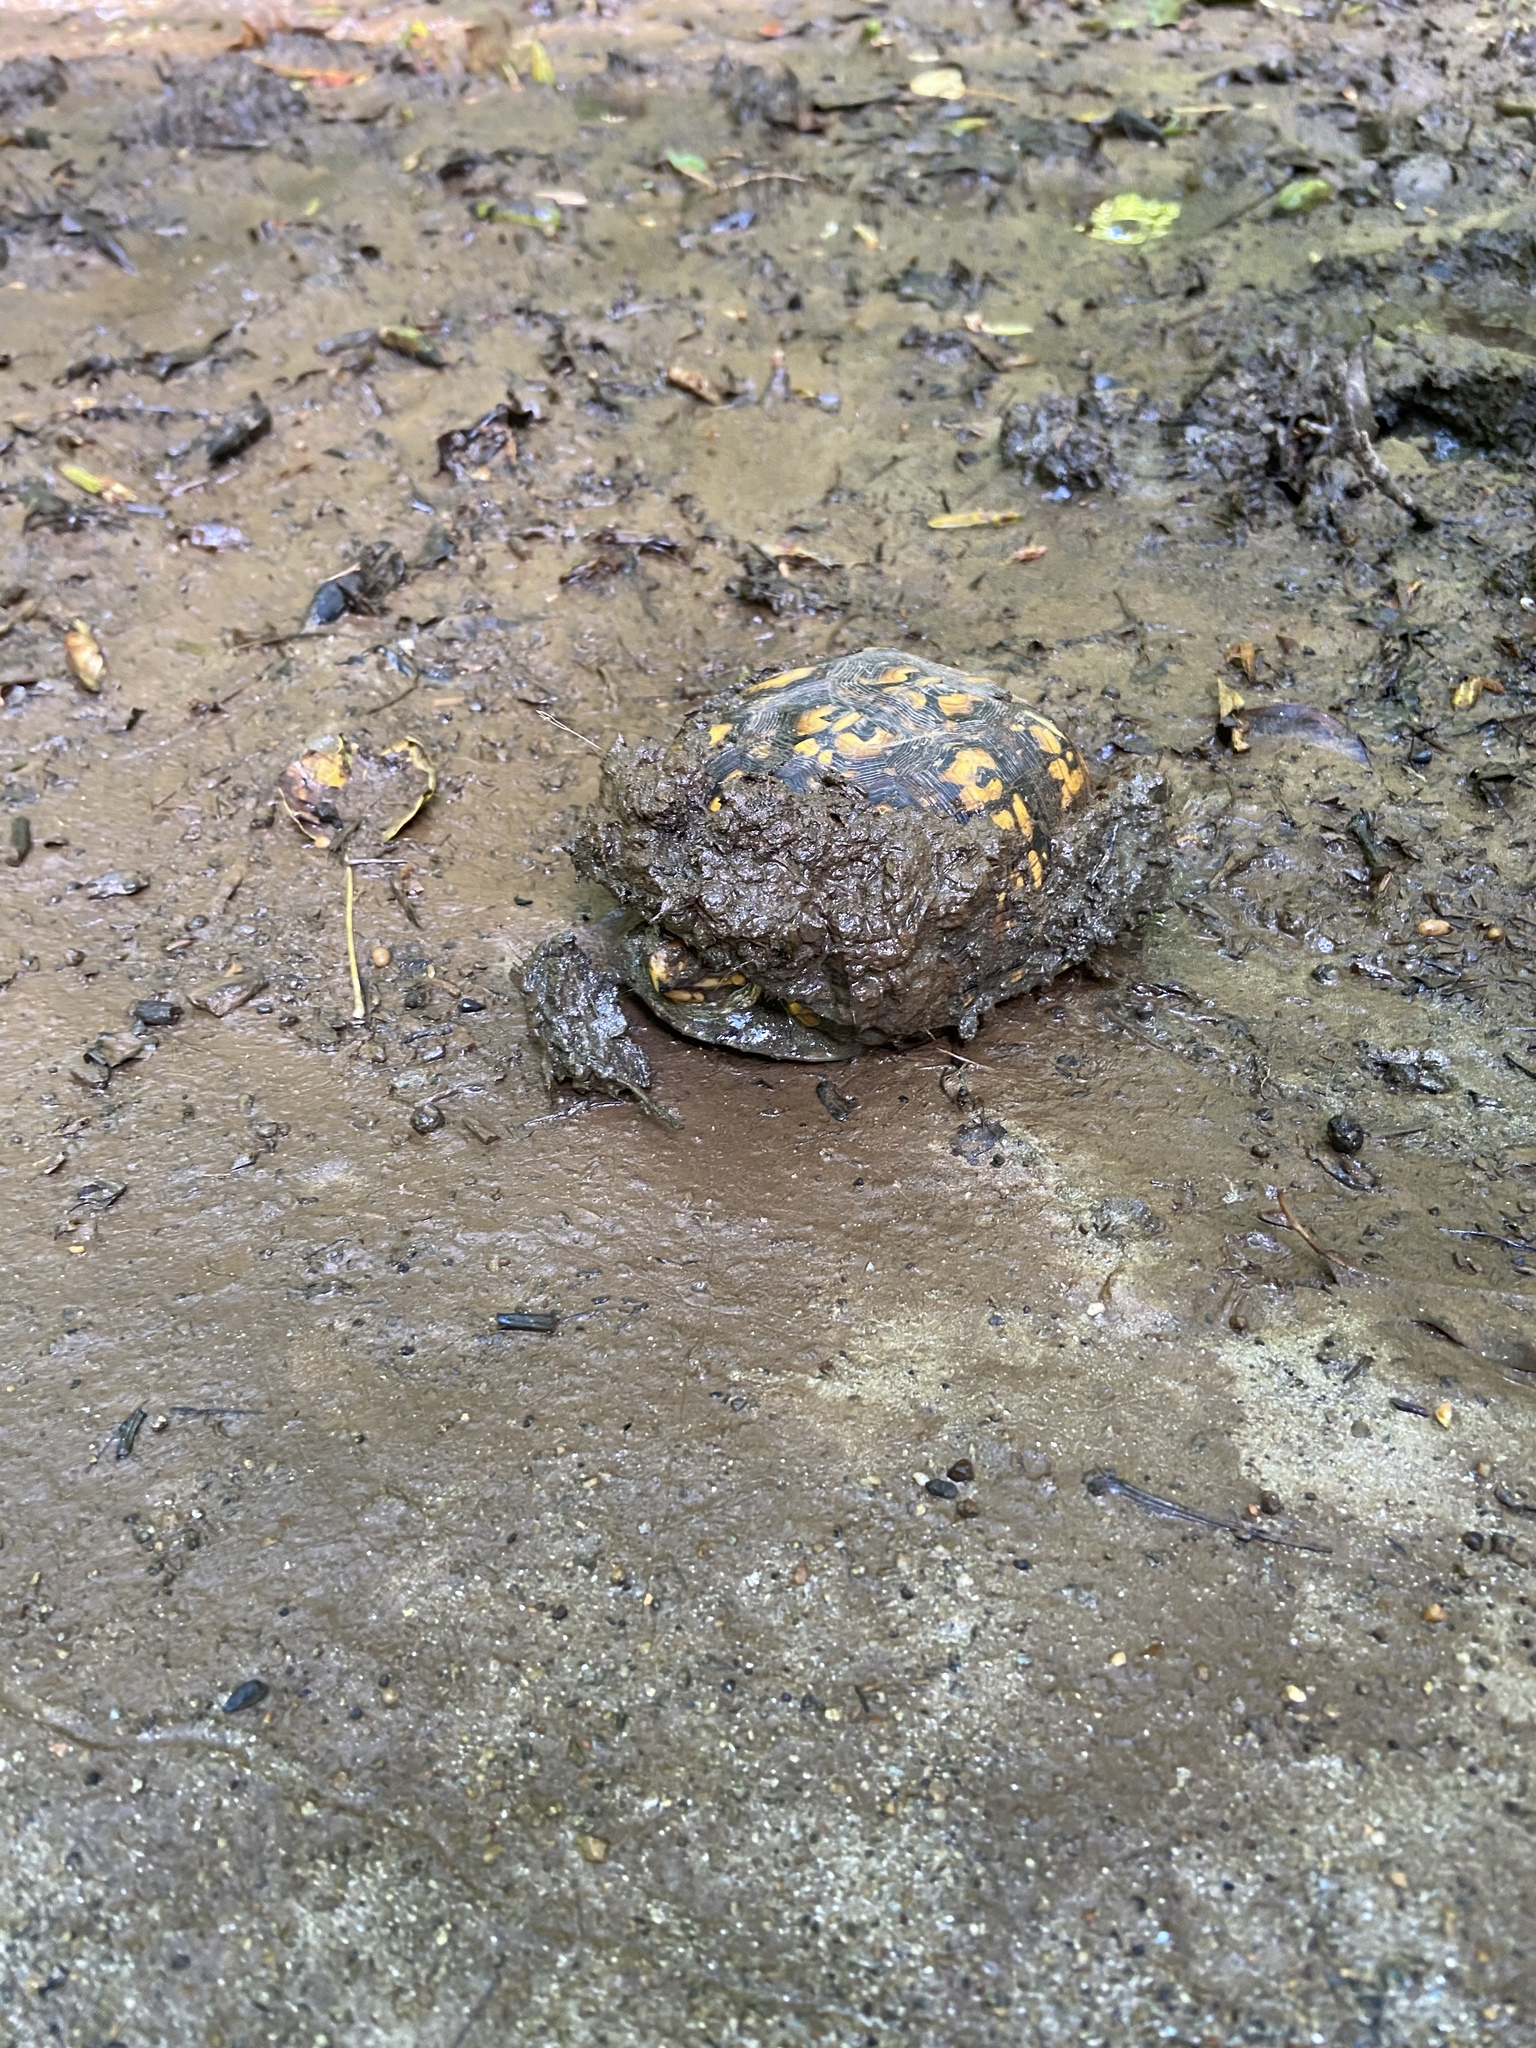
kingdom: Animalia
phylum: Chordata
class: Testudines
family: Emydidae
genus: Terrapene
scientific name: Terrapene carolina
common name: Common box turtle
